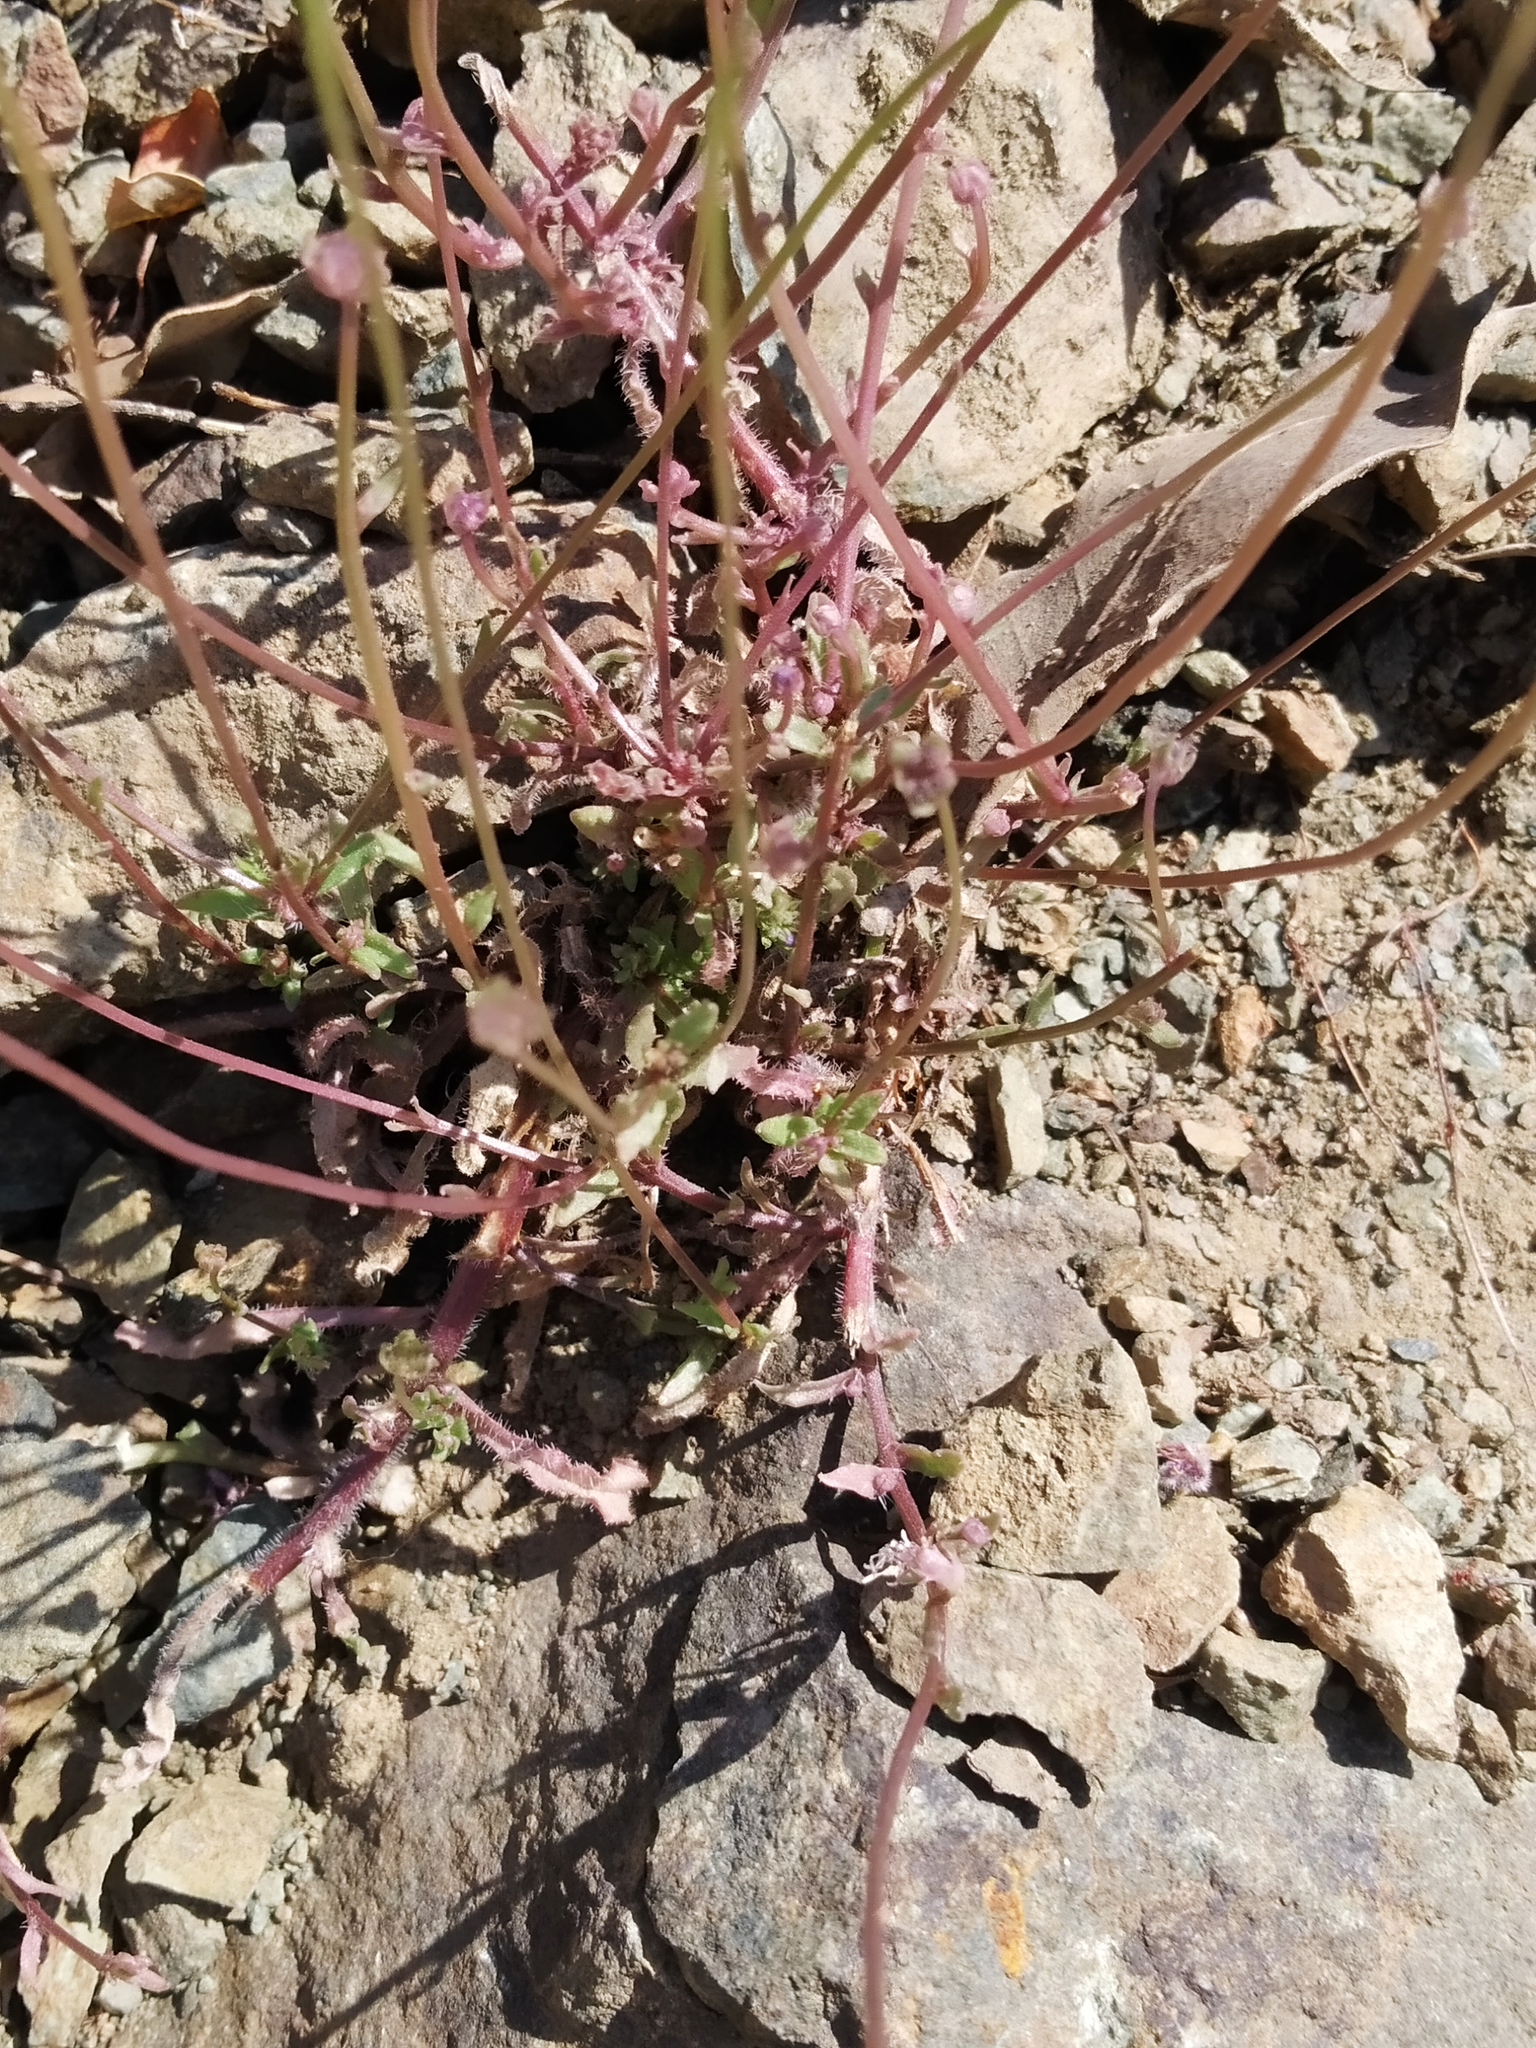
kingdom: Plantae
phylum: Tracheophyta
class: Magnoliopsida
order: Asterales
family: Campanulaceae
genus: Jasione
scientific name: Jasione montana
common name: Sheep's-bit
